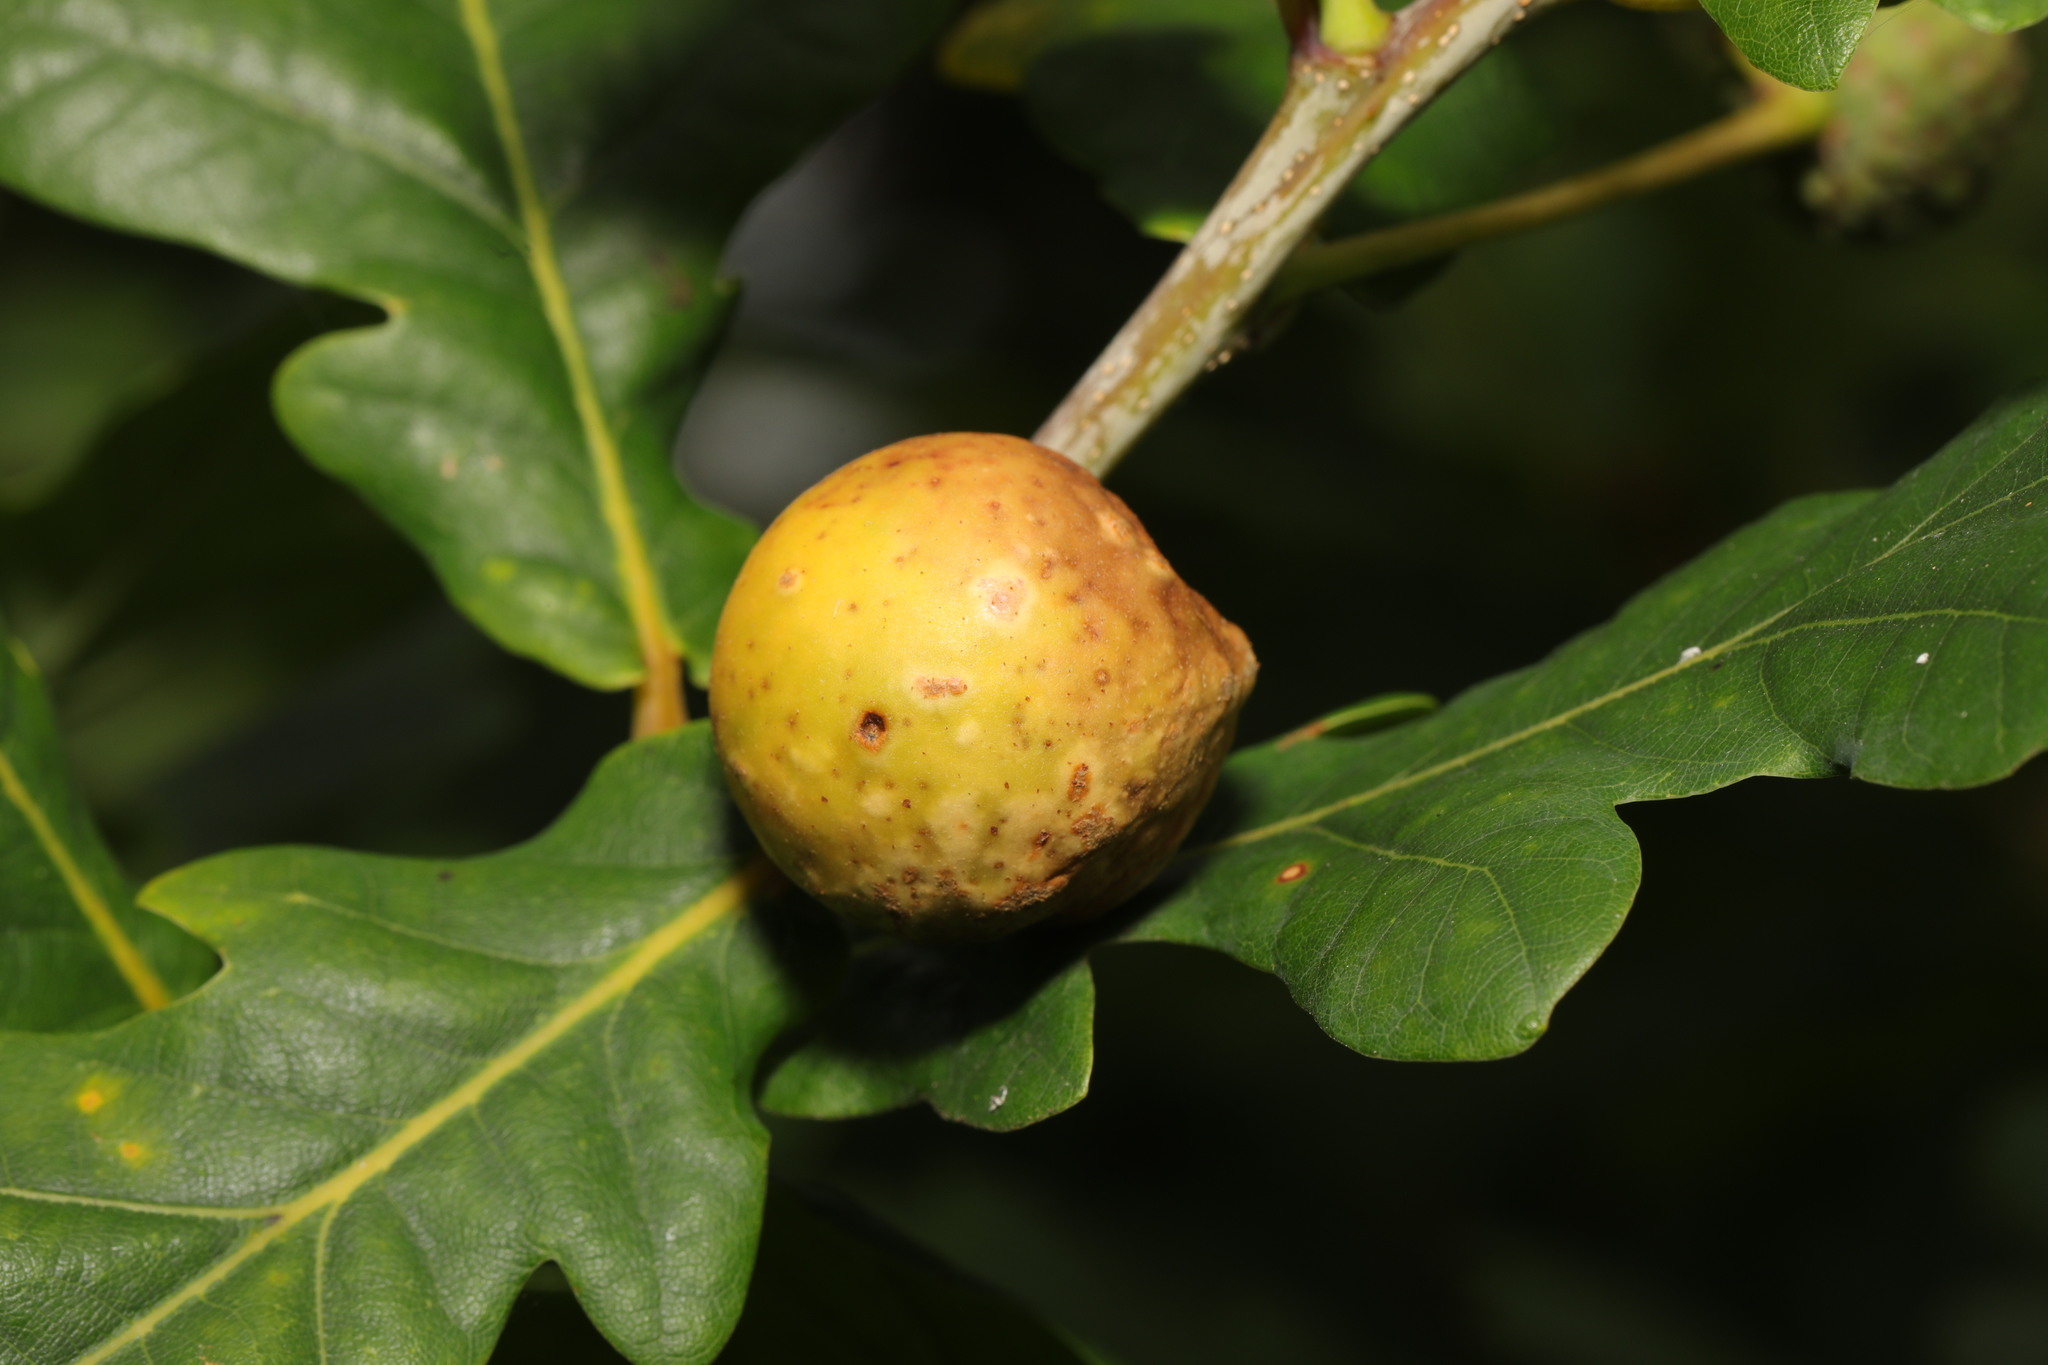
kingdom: Animalia
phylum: Arthropoda
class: Insecta
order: Hymenoptera
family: Cynipidae
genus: Andricus
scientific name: Andricus kollari
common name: Marble gall
